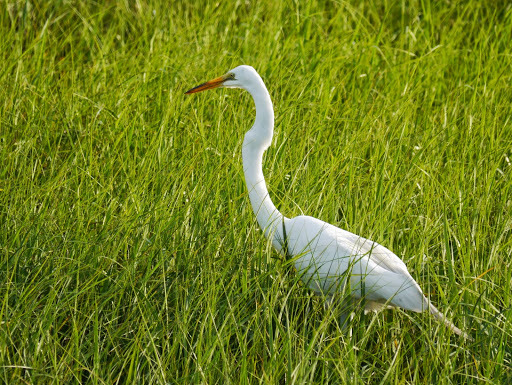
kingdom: Animalia
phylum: Chordata
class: Aves
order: Pelecaniformes
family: Ardeidae
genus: Ardea
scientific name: Ardea alba
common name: Great egret
